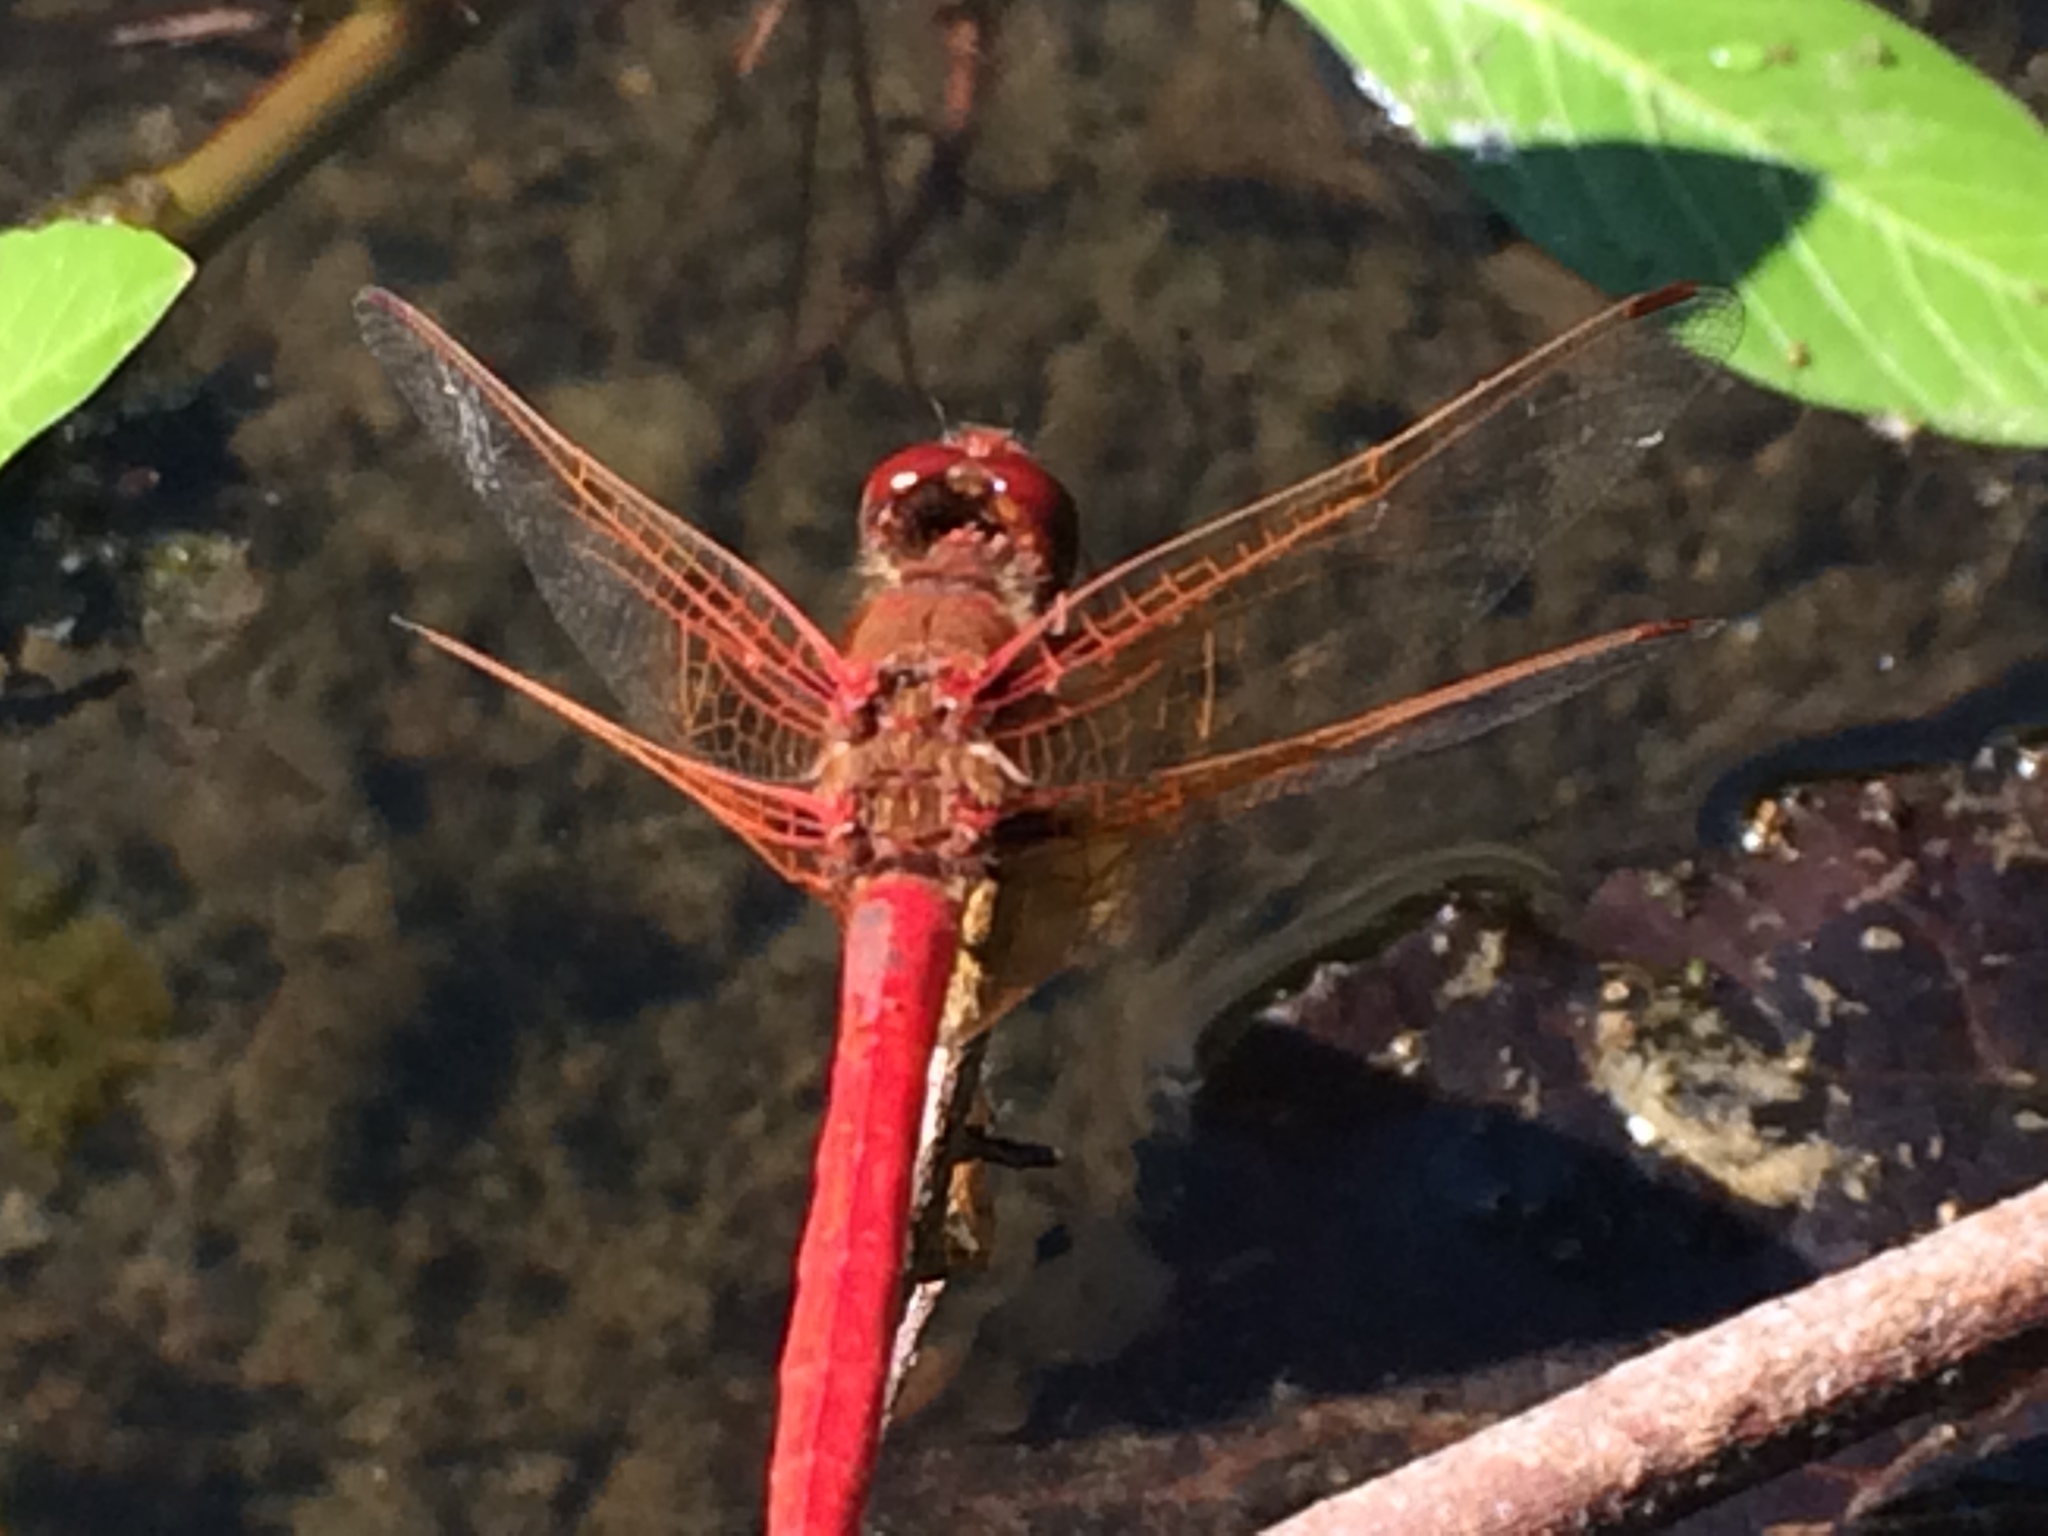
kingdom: Animalia
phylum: Arthropoda
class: Insecta
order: Odonata
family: Libellulidae
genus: Sympetrum
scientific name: Sympetrum illotum
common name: Cardinal meadowhawk
